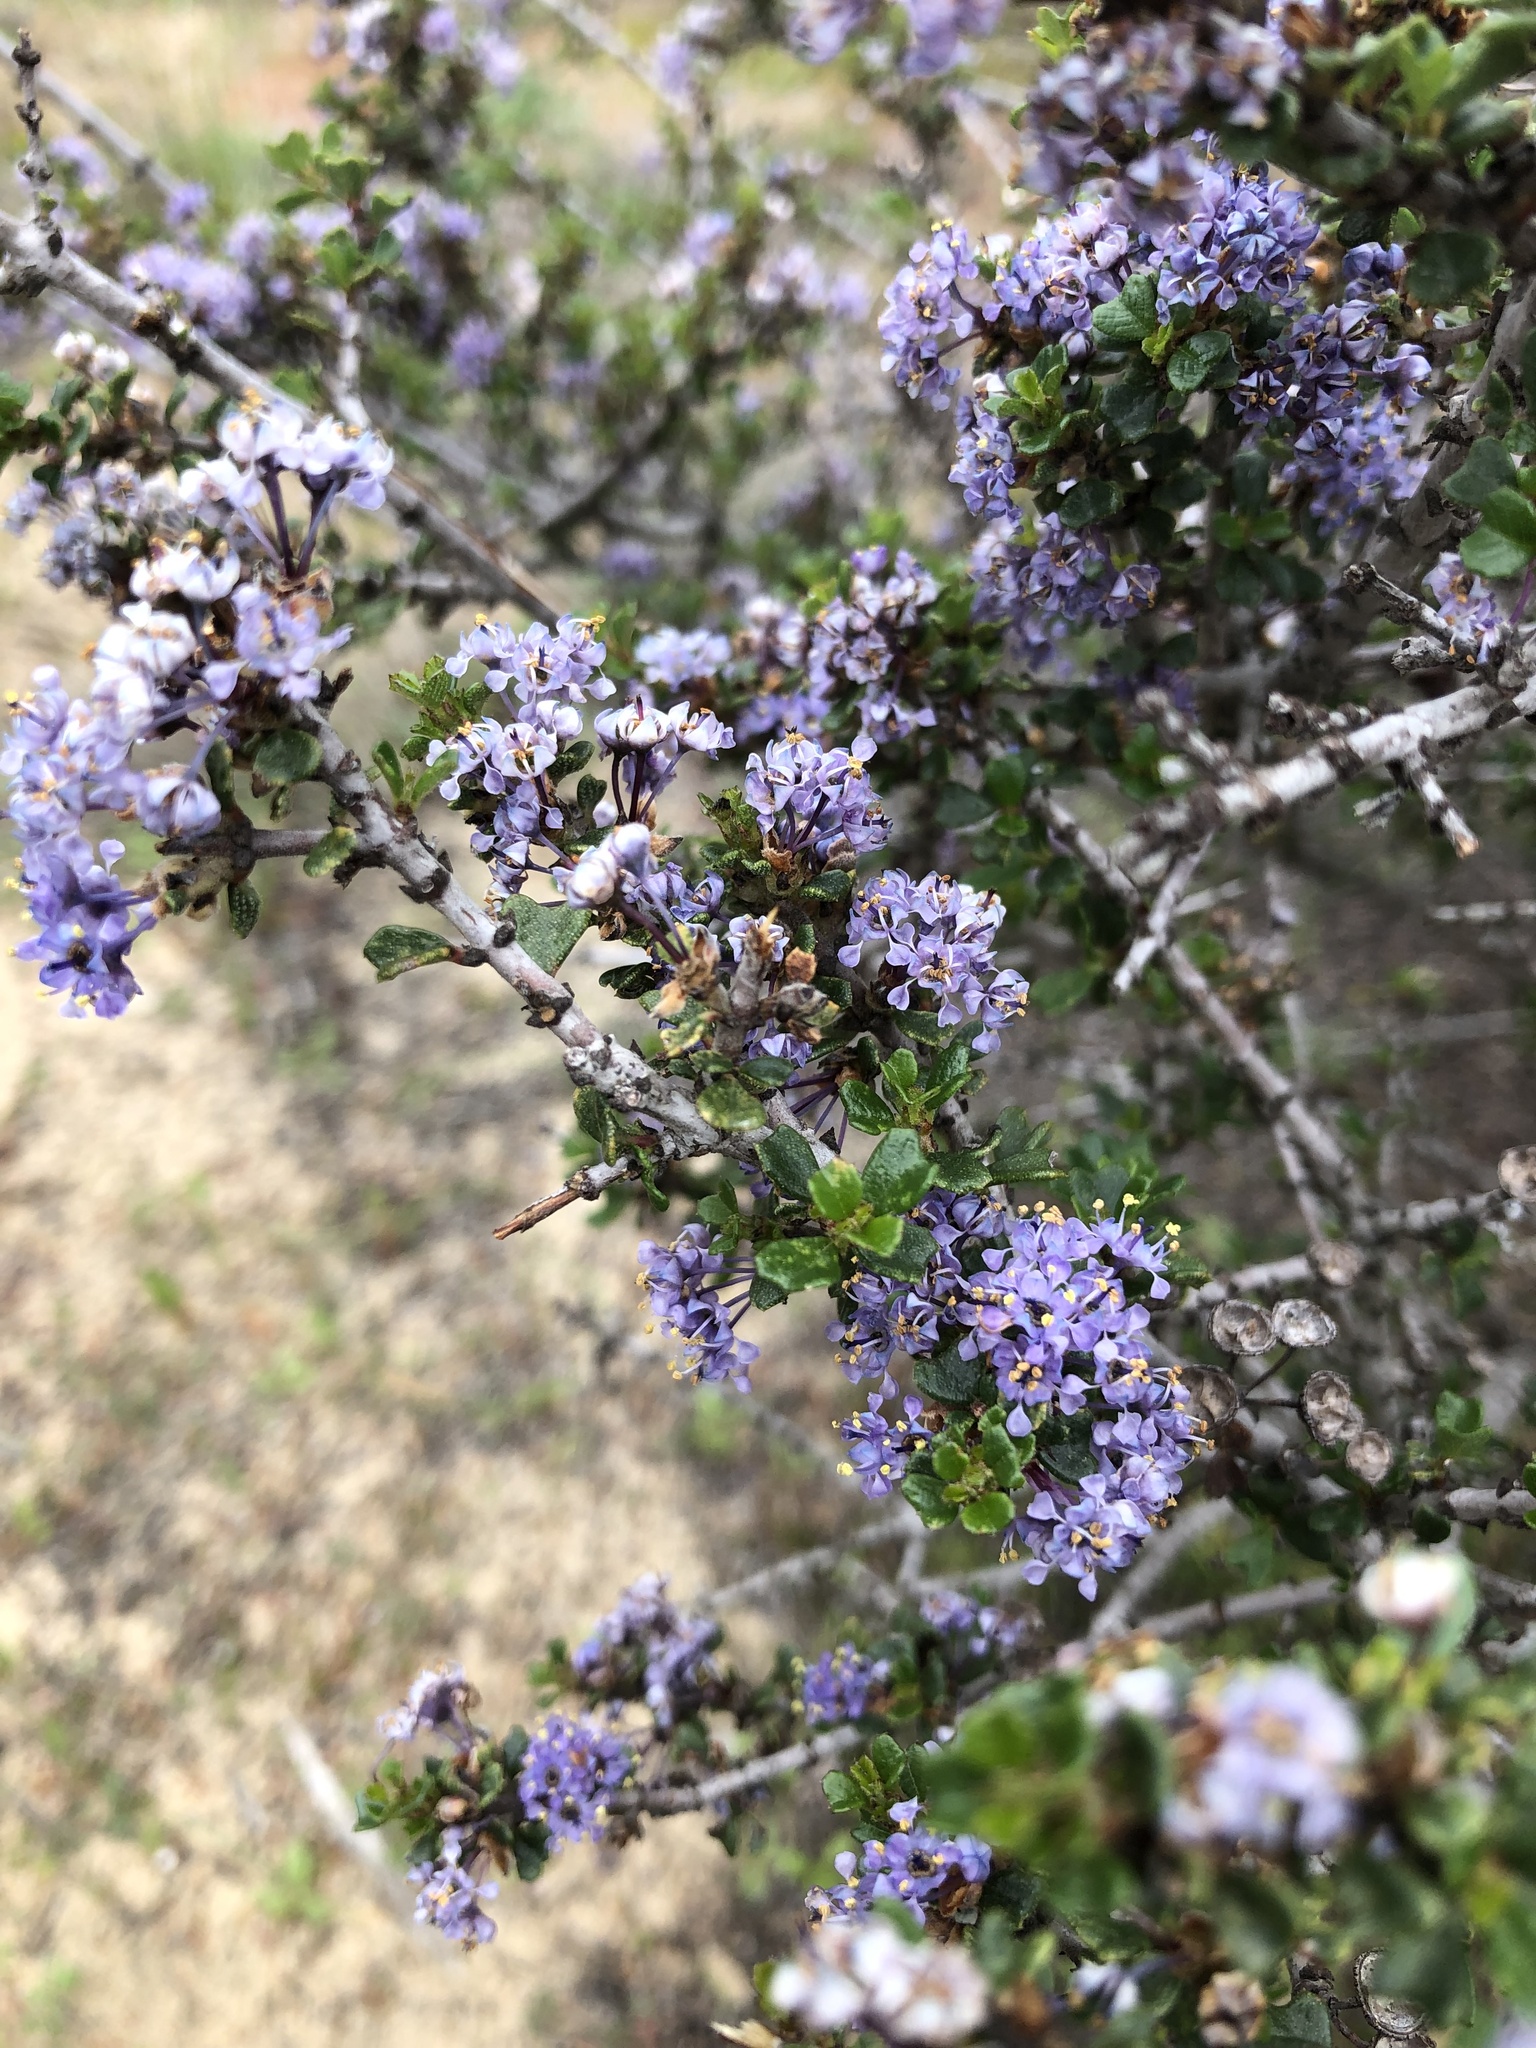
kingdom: Plantae
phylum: Tracheophyta
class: Magnoliopsida
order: Rosales
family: Rhamnaceae
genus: Ceanothus
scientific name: Ceanothus cuneatus
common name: Cuneate ceanothus
